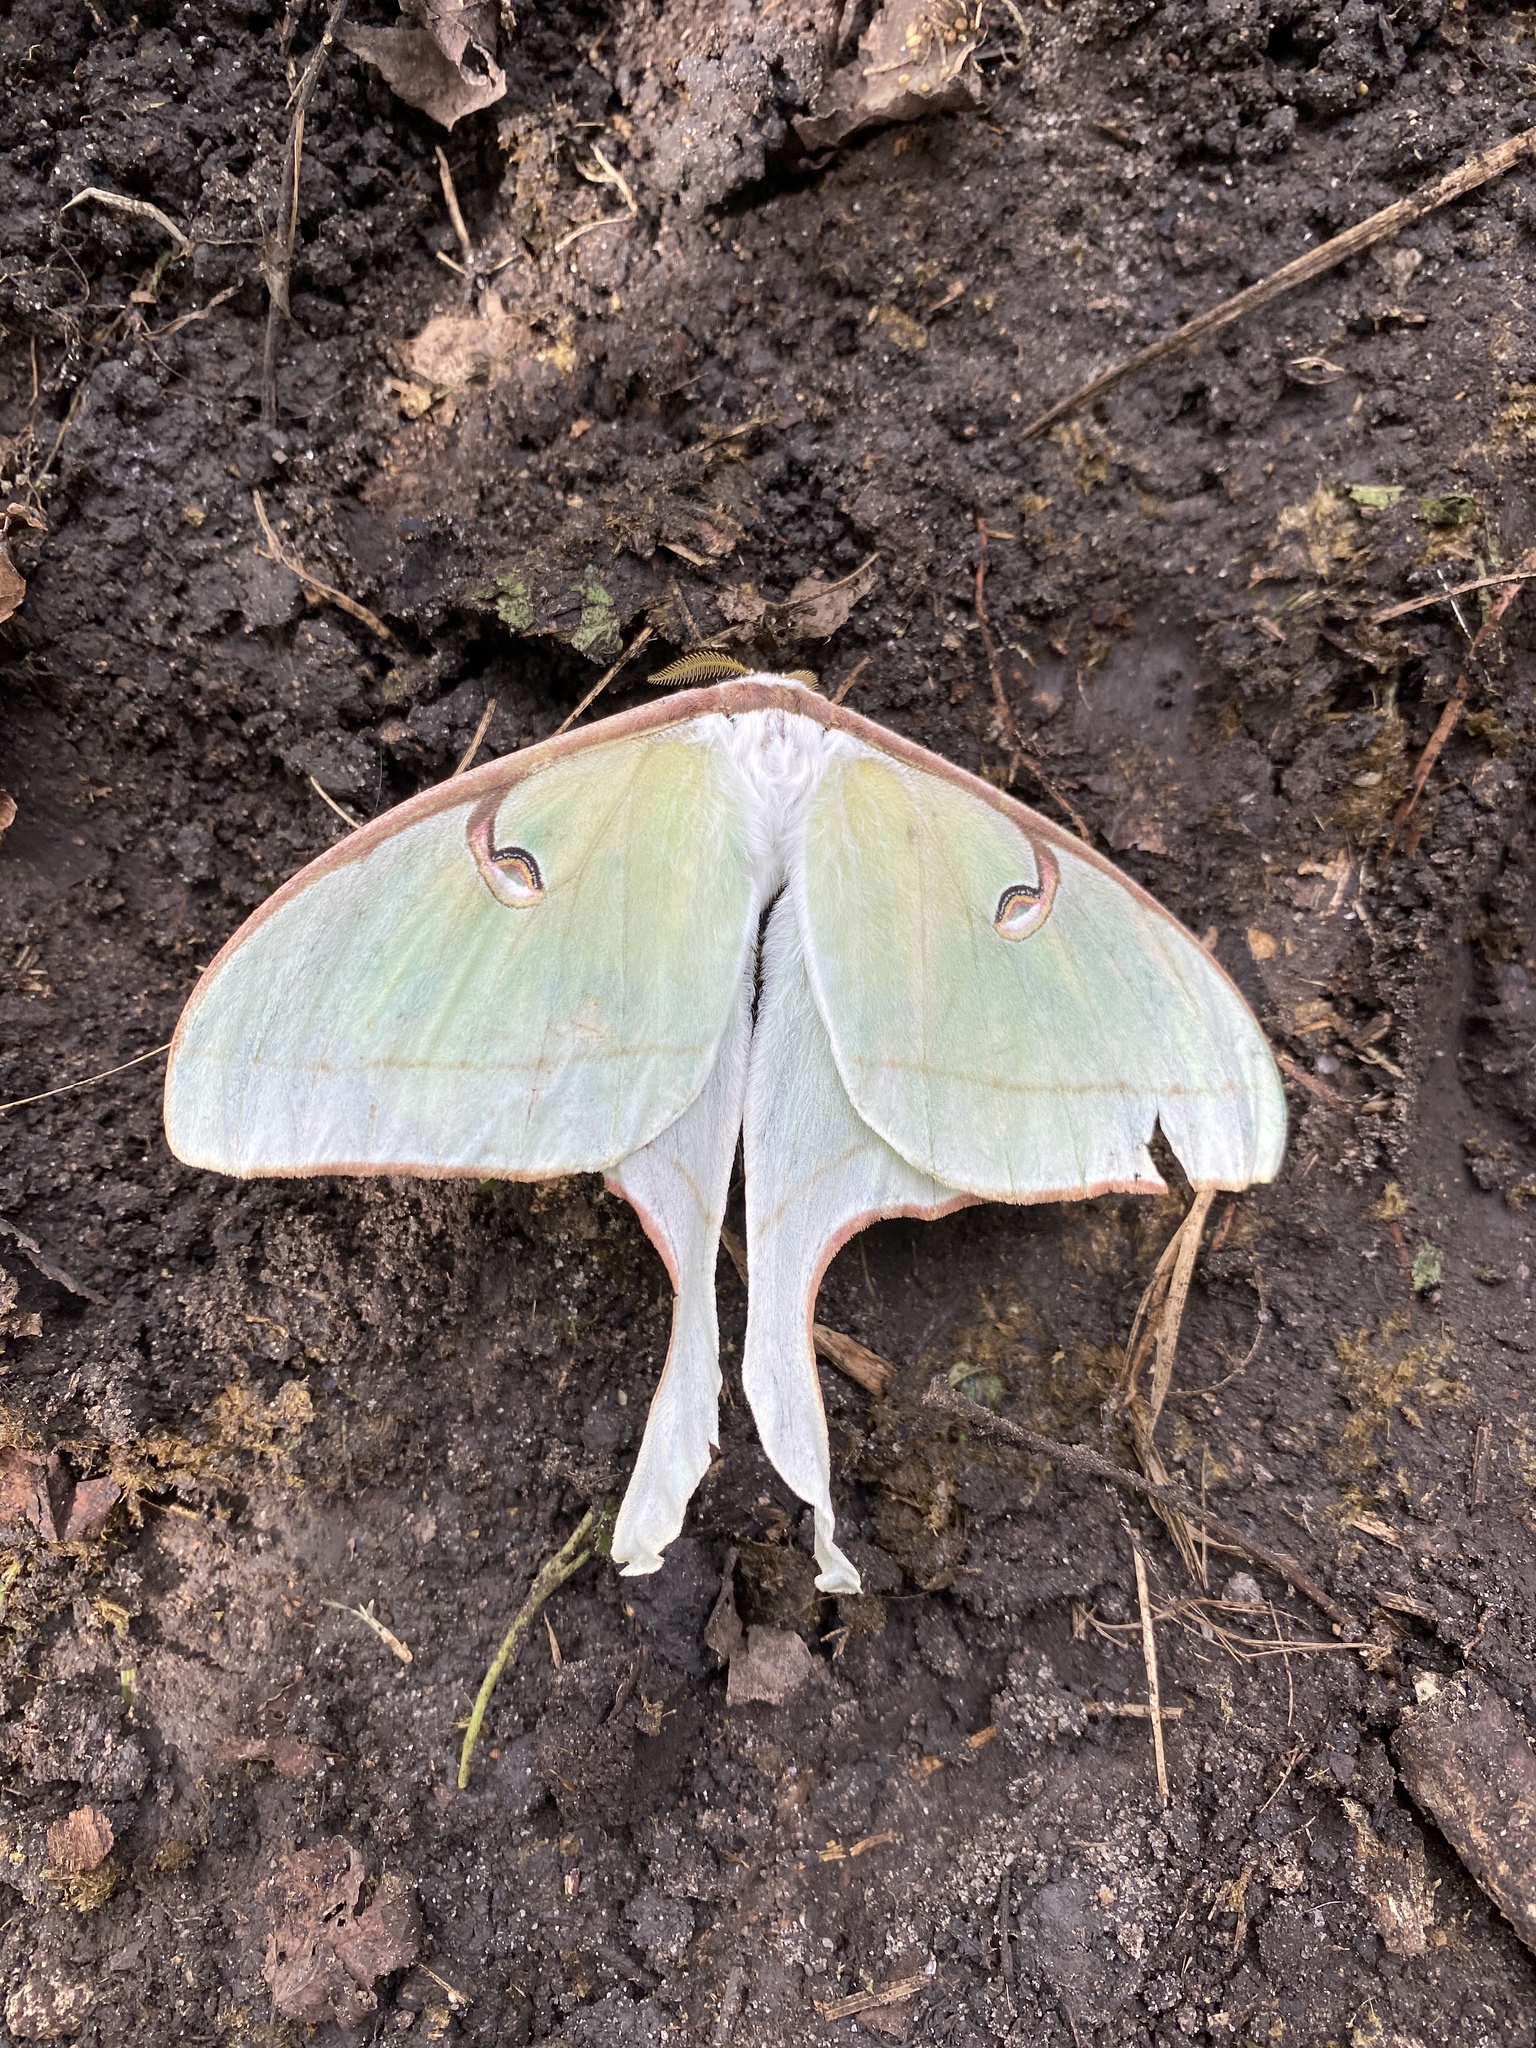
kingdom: Animalia
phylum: Arthropoda
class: Insecta
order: Lepidoptera
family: Saturniidae
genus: Actias
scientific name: Actias luna
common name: Luna moth
